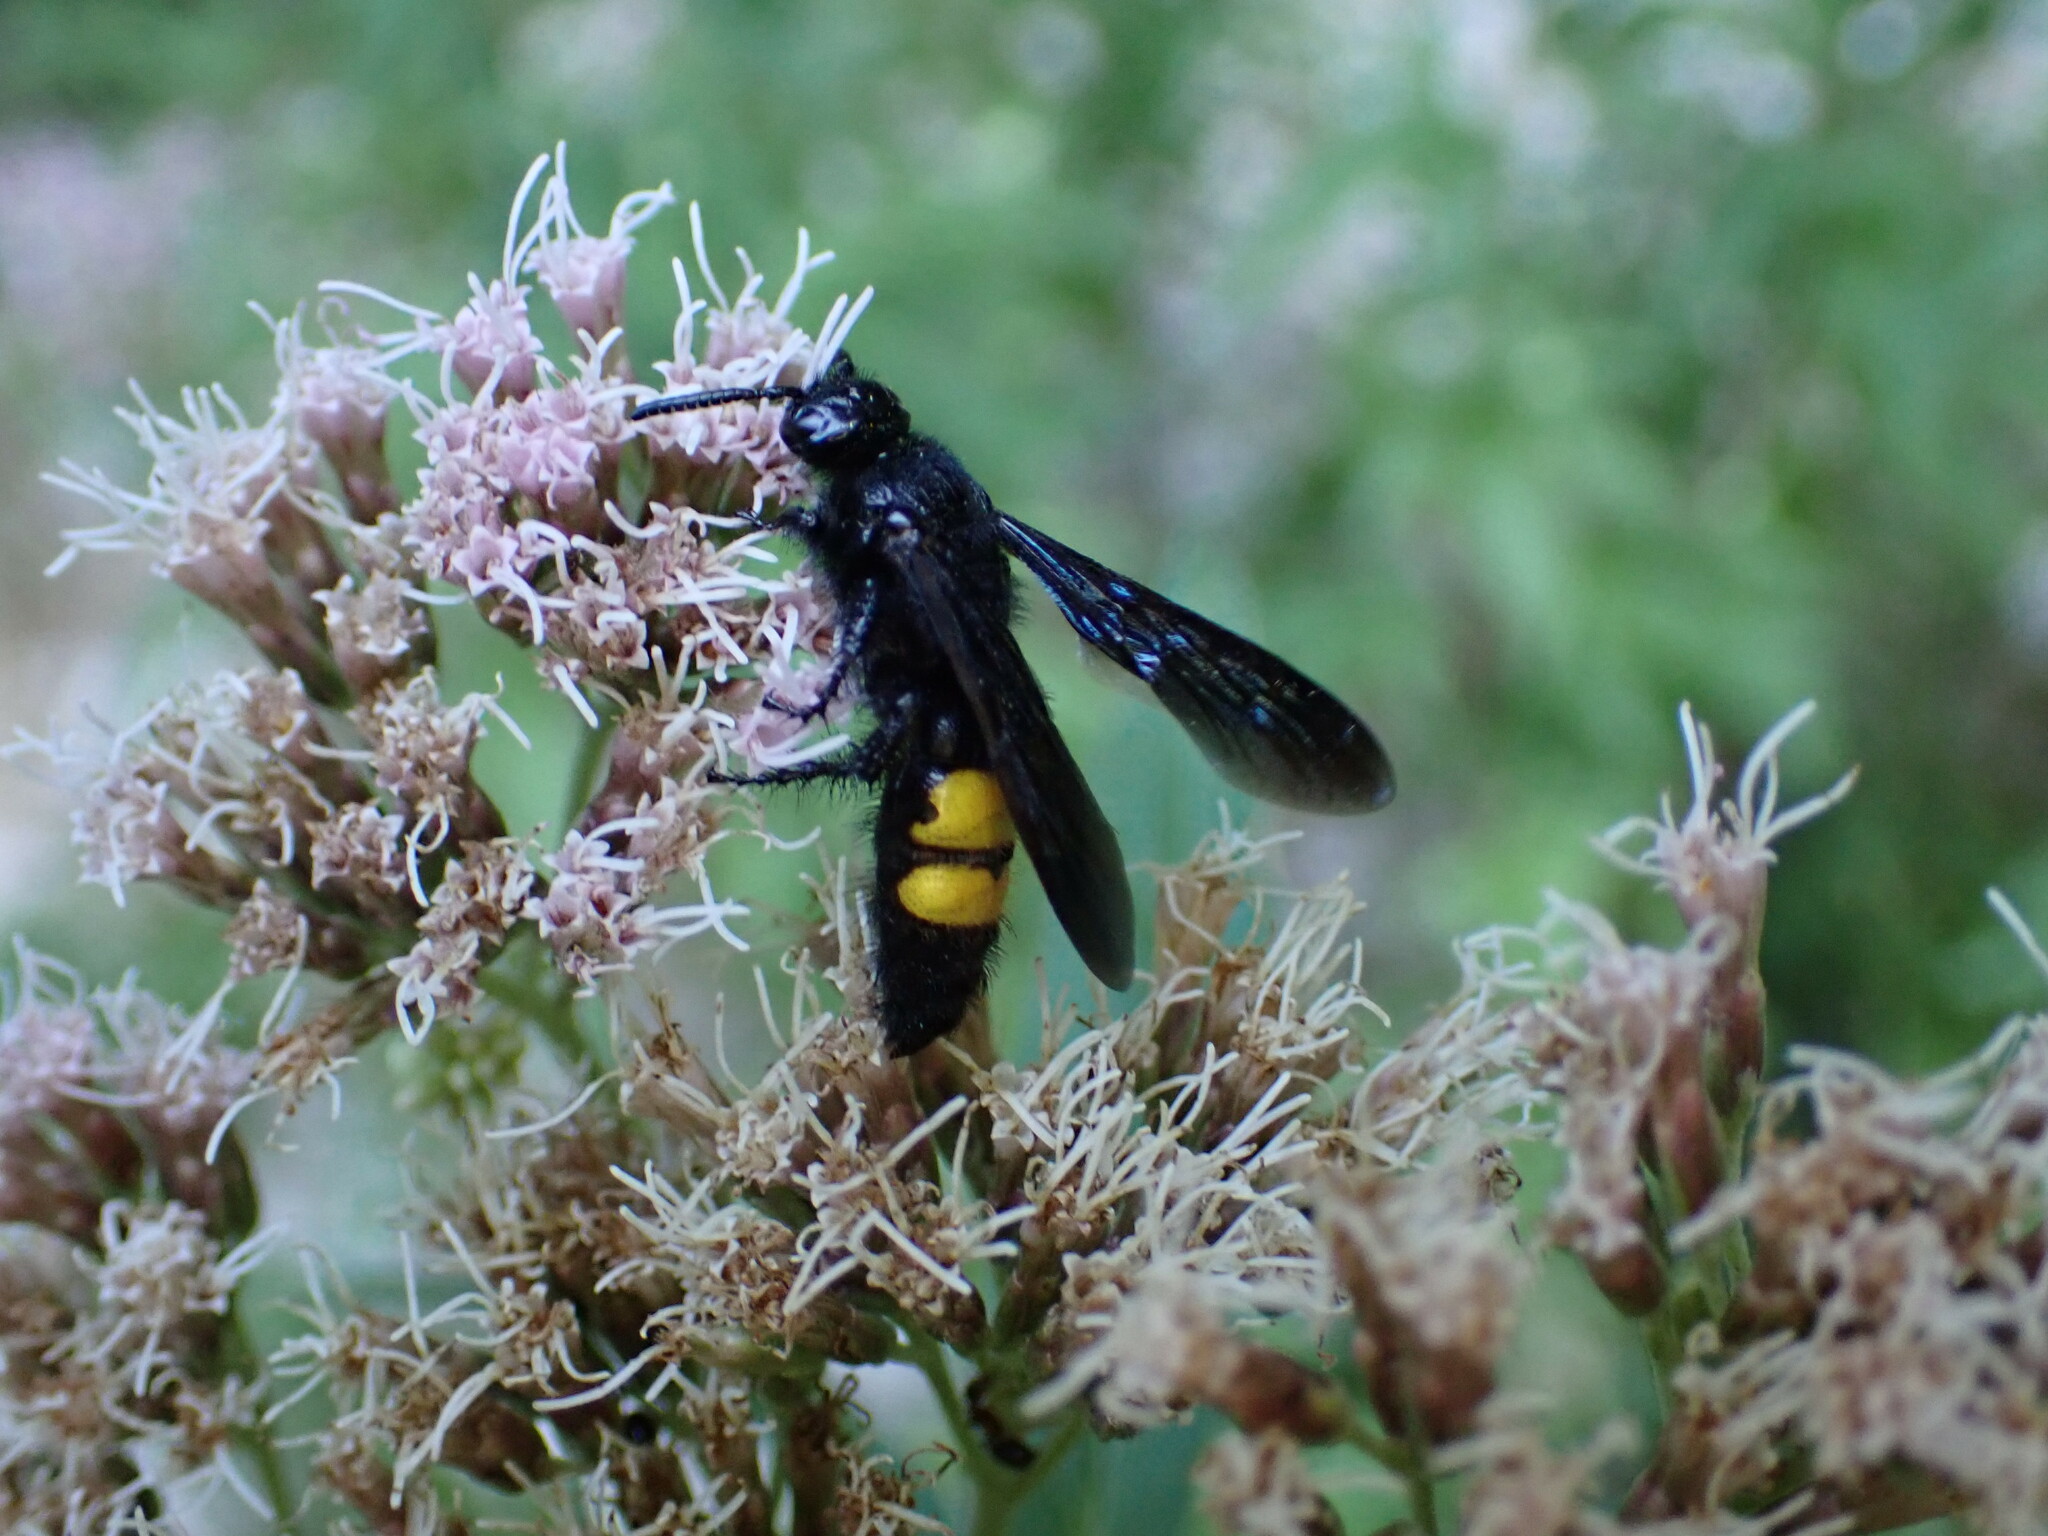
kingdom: Animalia
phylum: Arthropoda
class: Insecta
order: Hymenoptera
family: Scoliidae
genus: Scolia
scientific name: Scolia hirta
